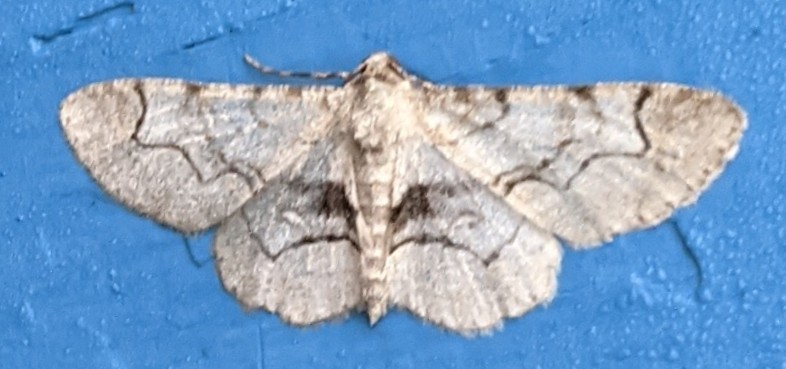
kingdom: Animalia
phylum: Arthropoda
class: Insecta
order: Lepidoptera
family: Geometridae
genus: Iridopsis
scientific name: Iridopsis larvaria
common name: Bent-line gray
